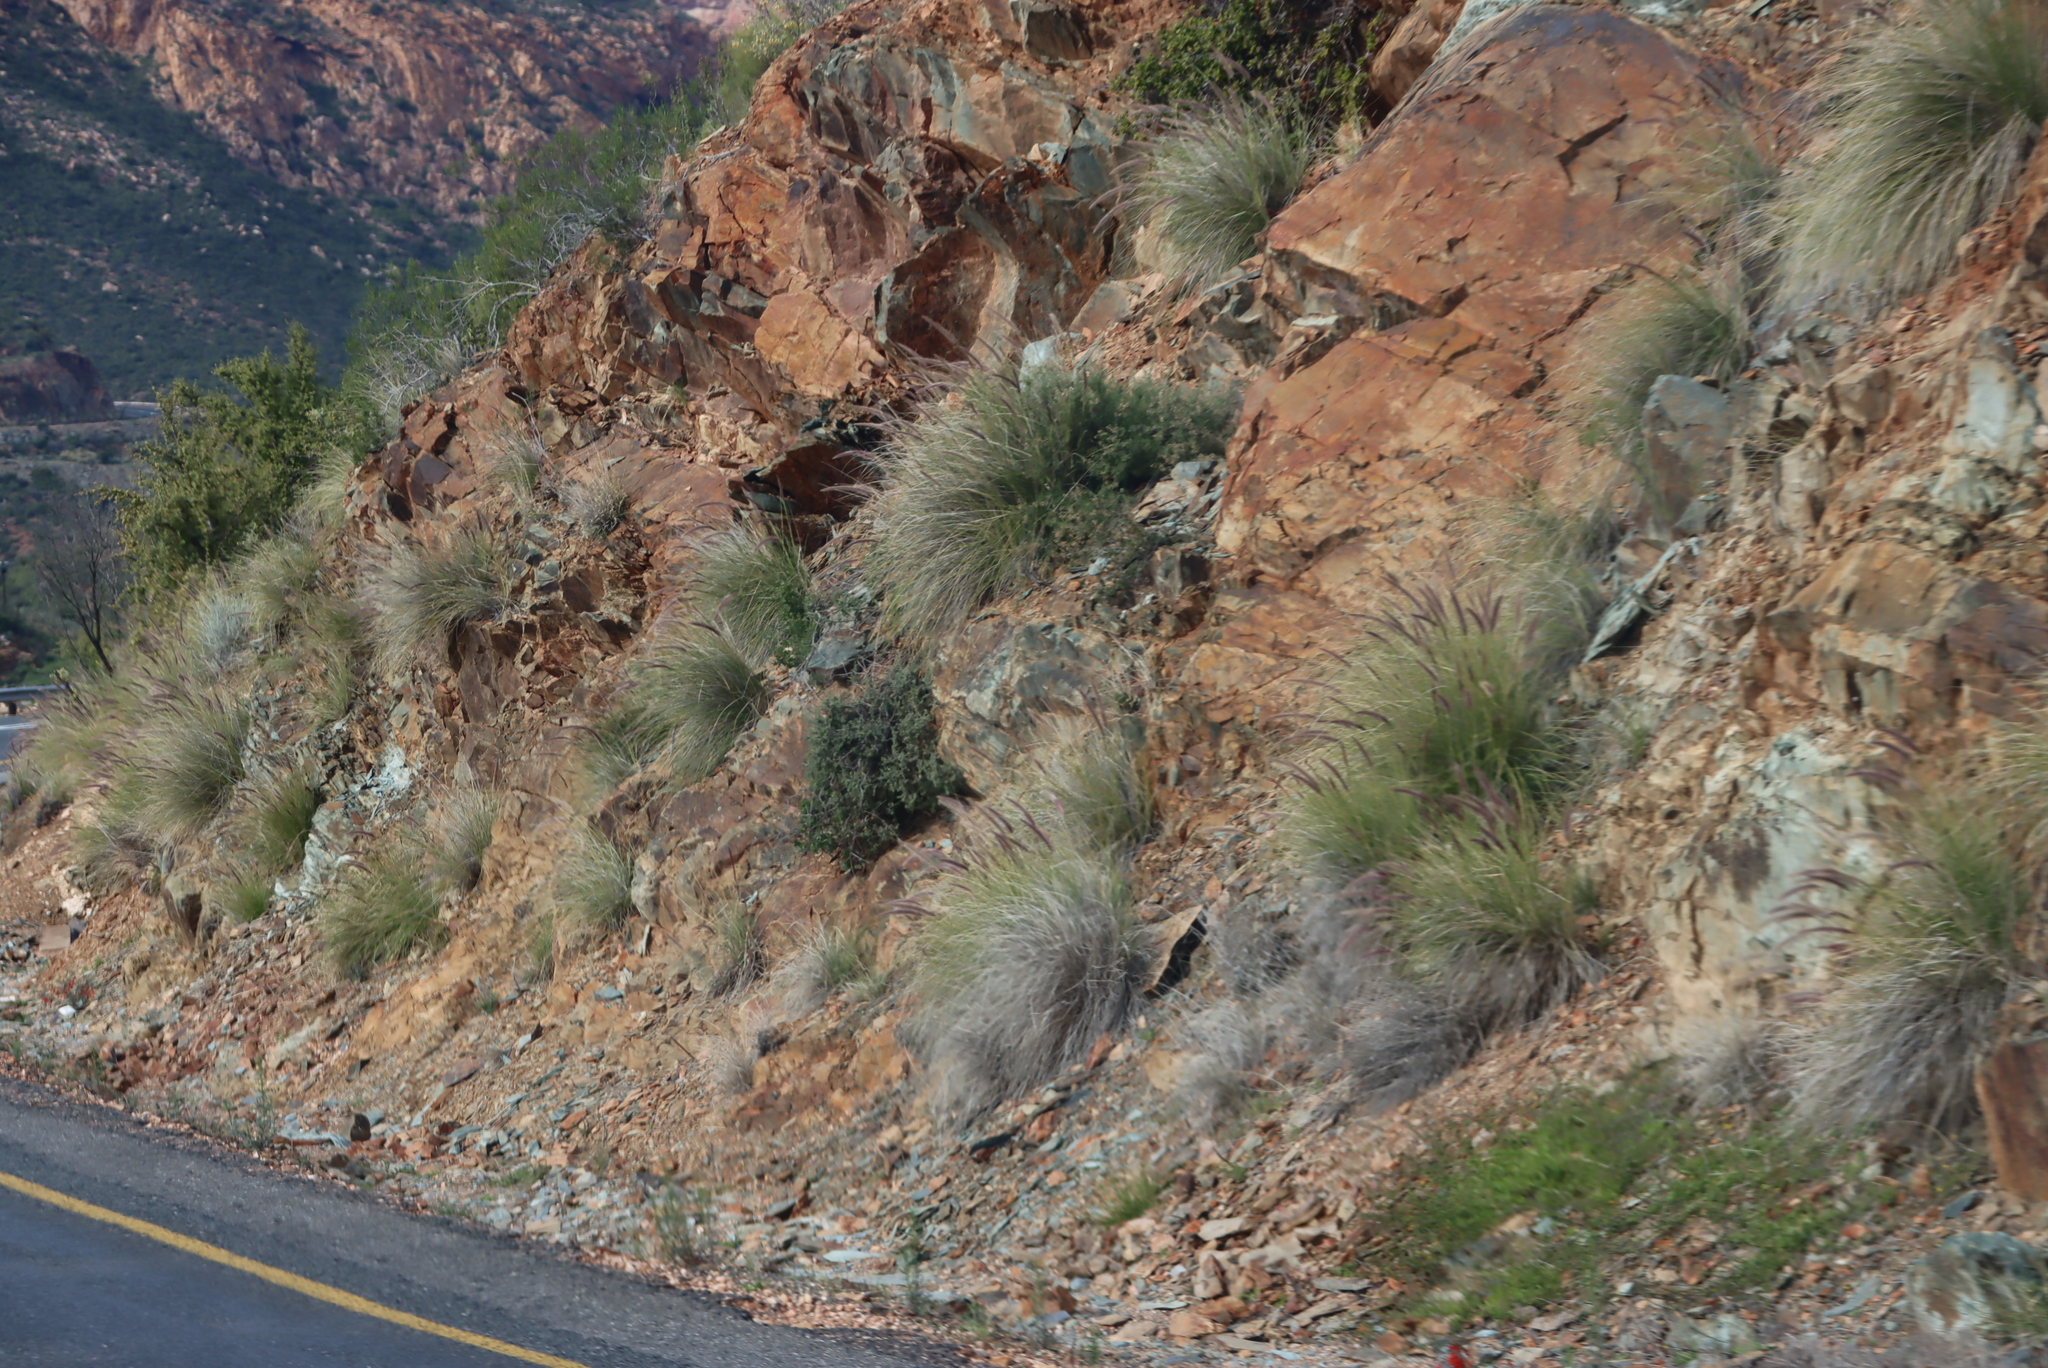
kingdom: Plantae
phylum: Tracheophyta
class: Liliopsida
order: Poales
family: Poaceae
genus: Cenchrus
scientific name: Cenchrus setaceus
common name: Crimson fountaingrass
